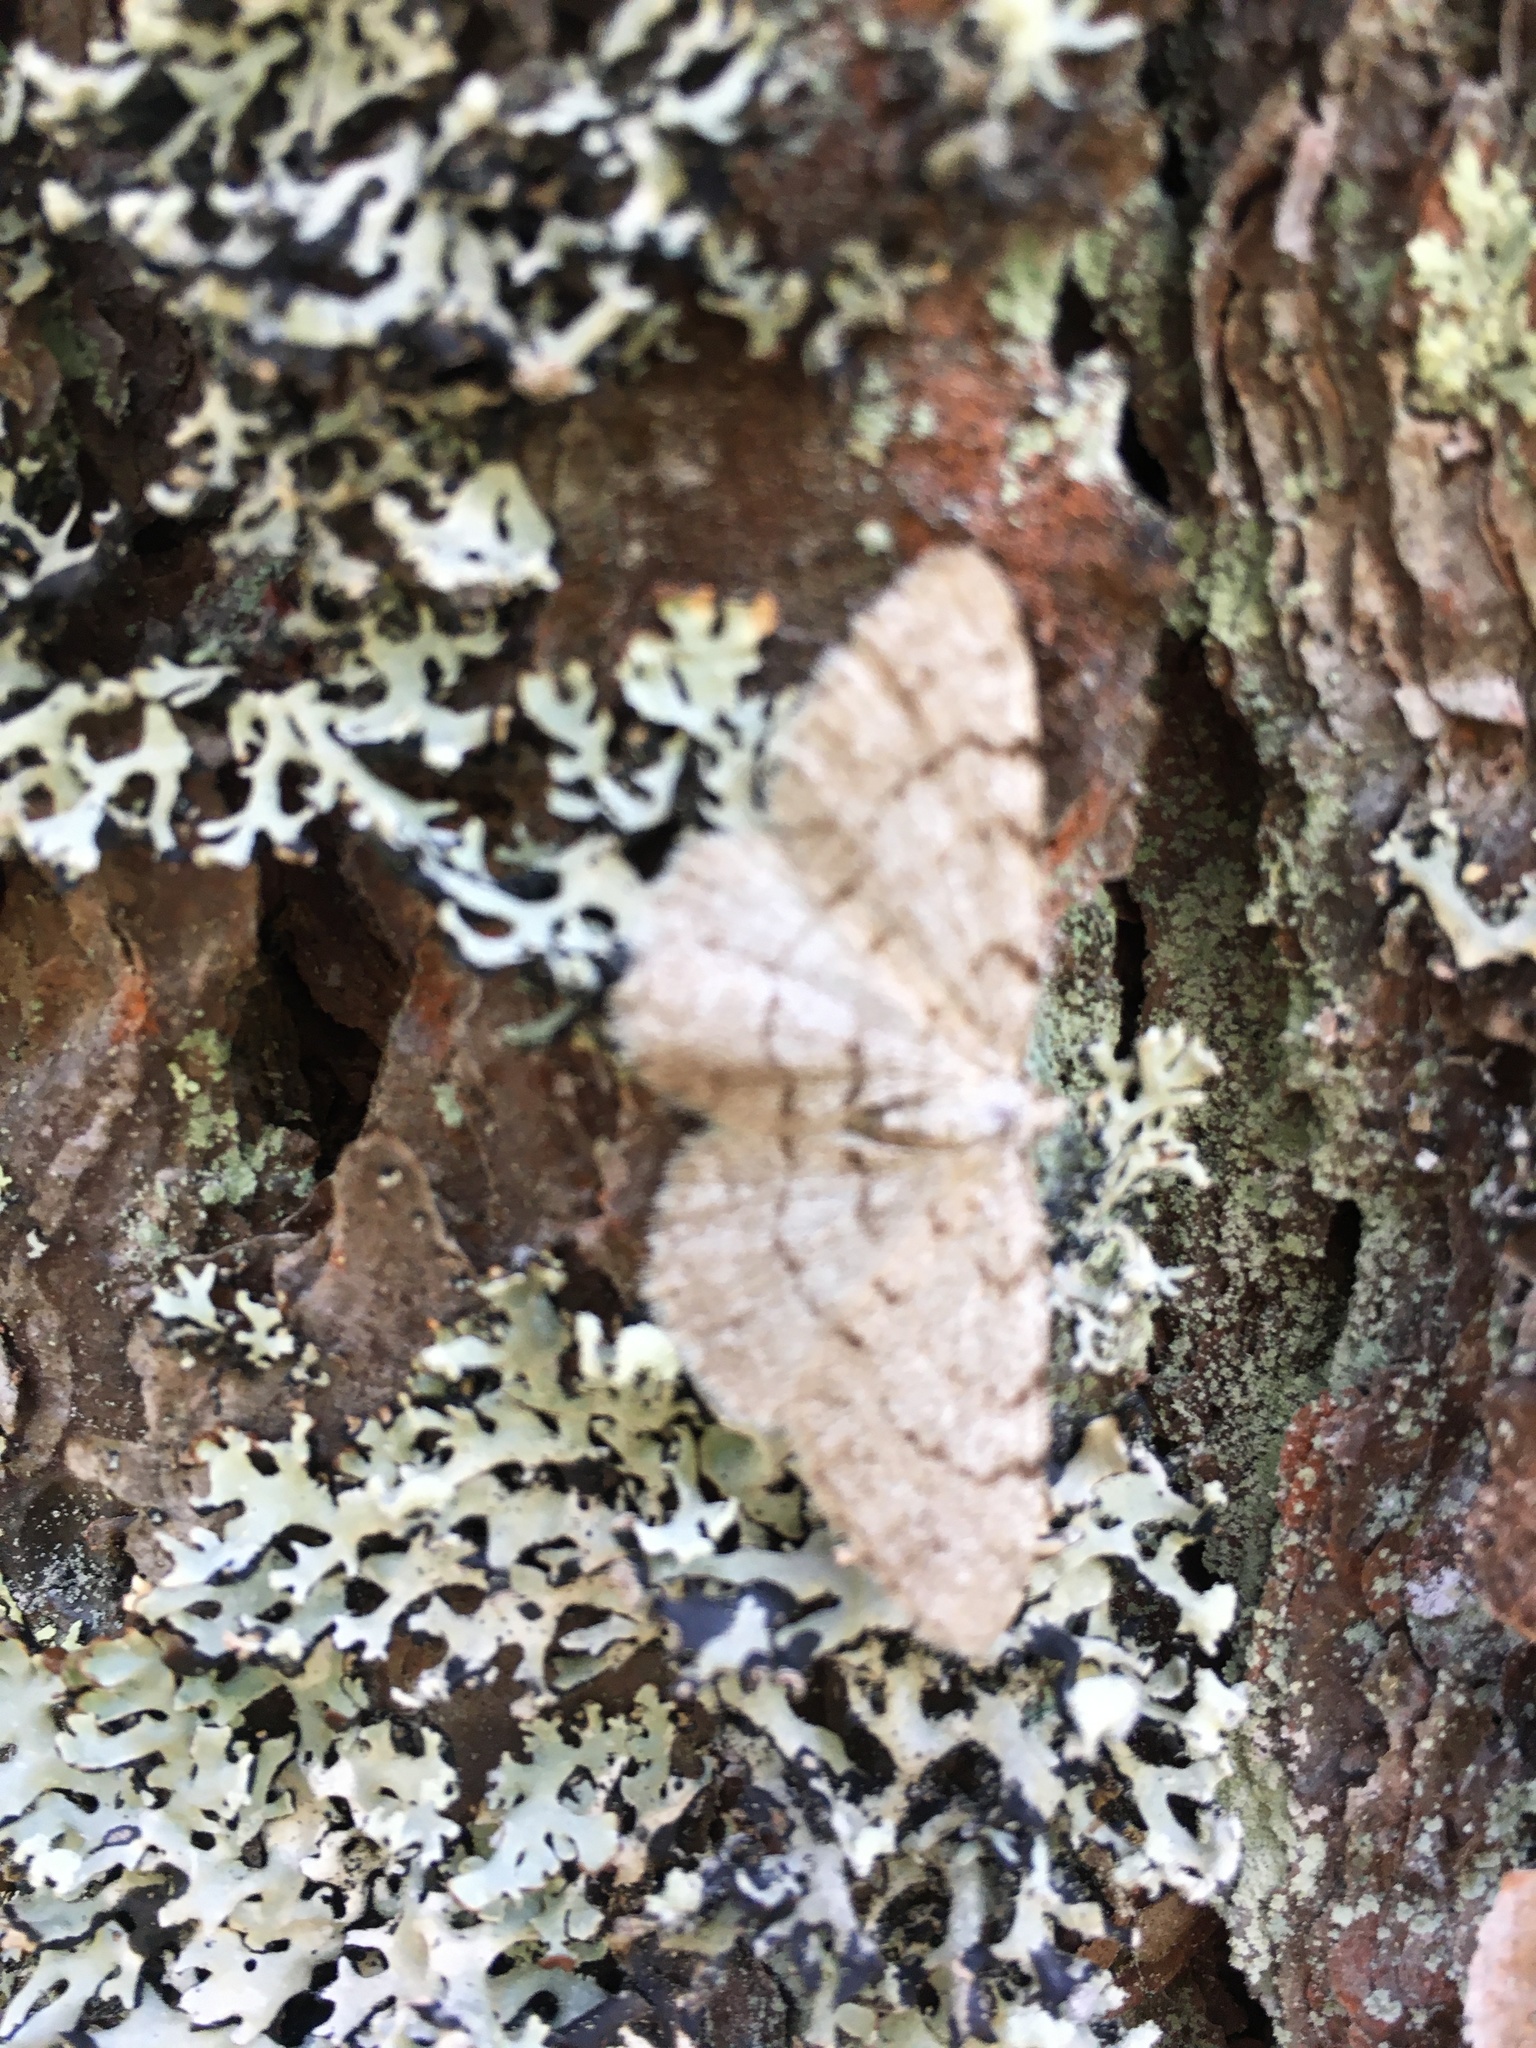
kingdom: Animalia
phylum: Arthropoda
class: Insecta
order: Lepidoptera
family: Geometridae
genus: Aethalura
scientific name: Aethalura punctulata
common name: Grey birch
